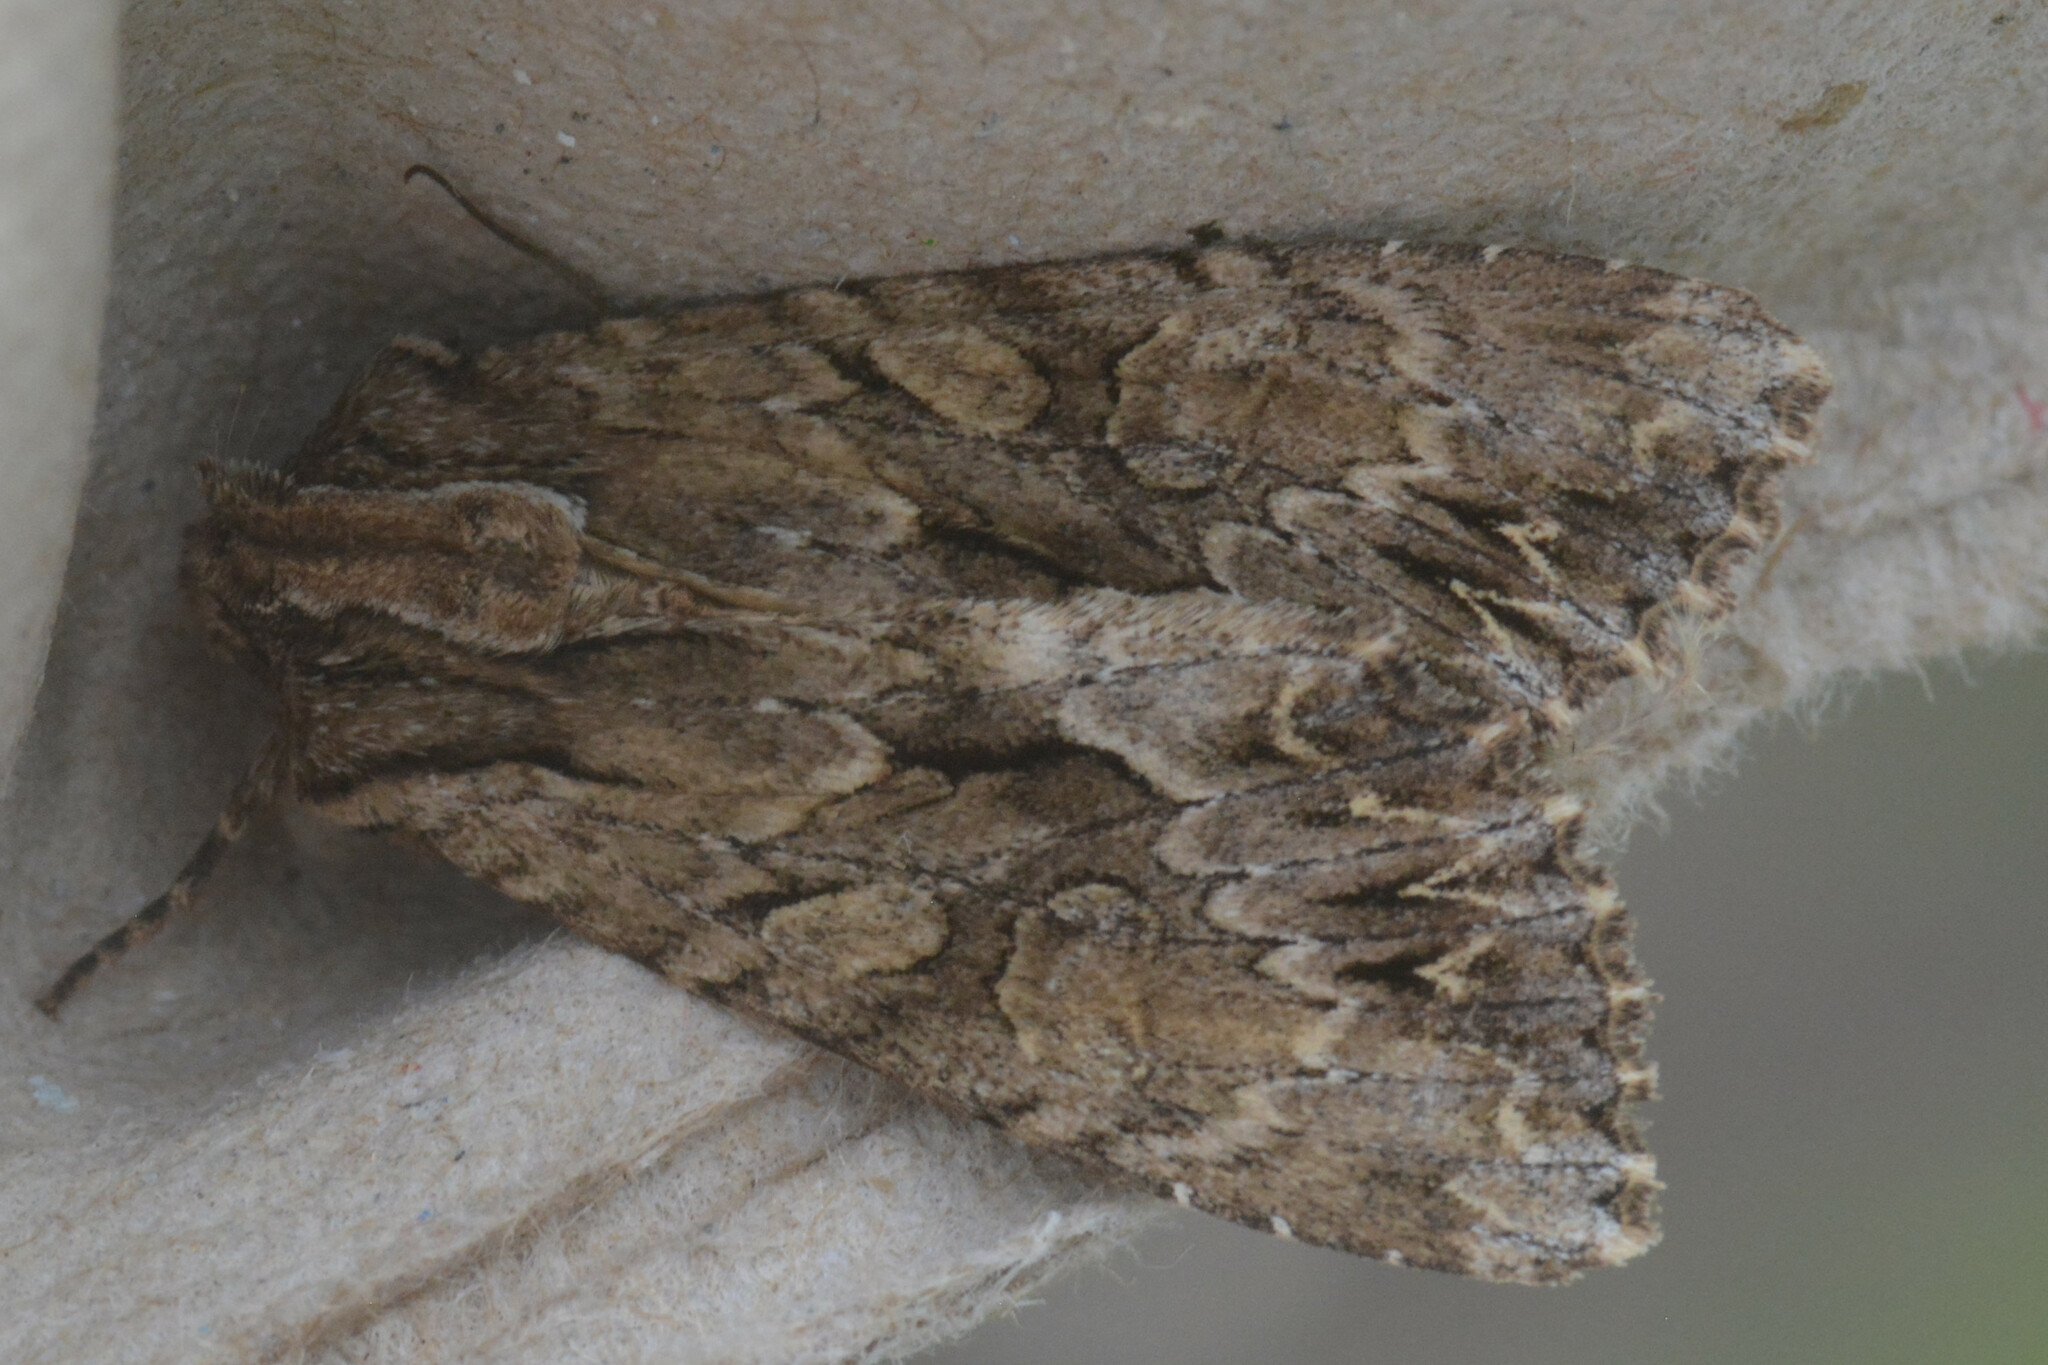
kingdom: Animalia
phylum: Arthropoda
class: Insecta
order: Lepidoptera
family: Noctuidae
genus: Apamea
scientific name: Apamea monoglypha
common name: Dark arches
